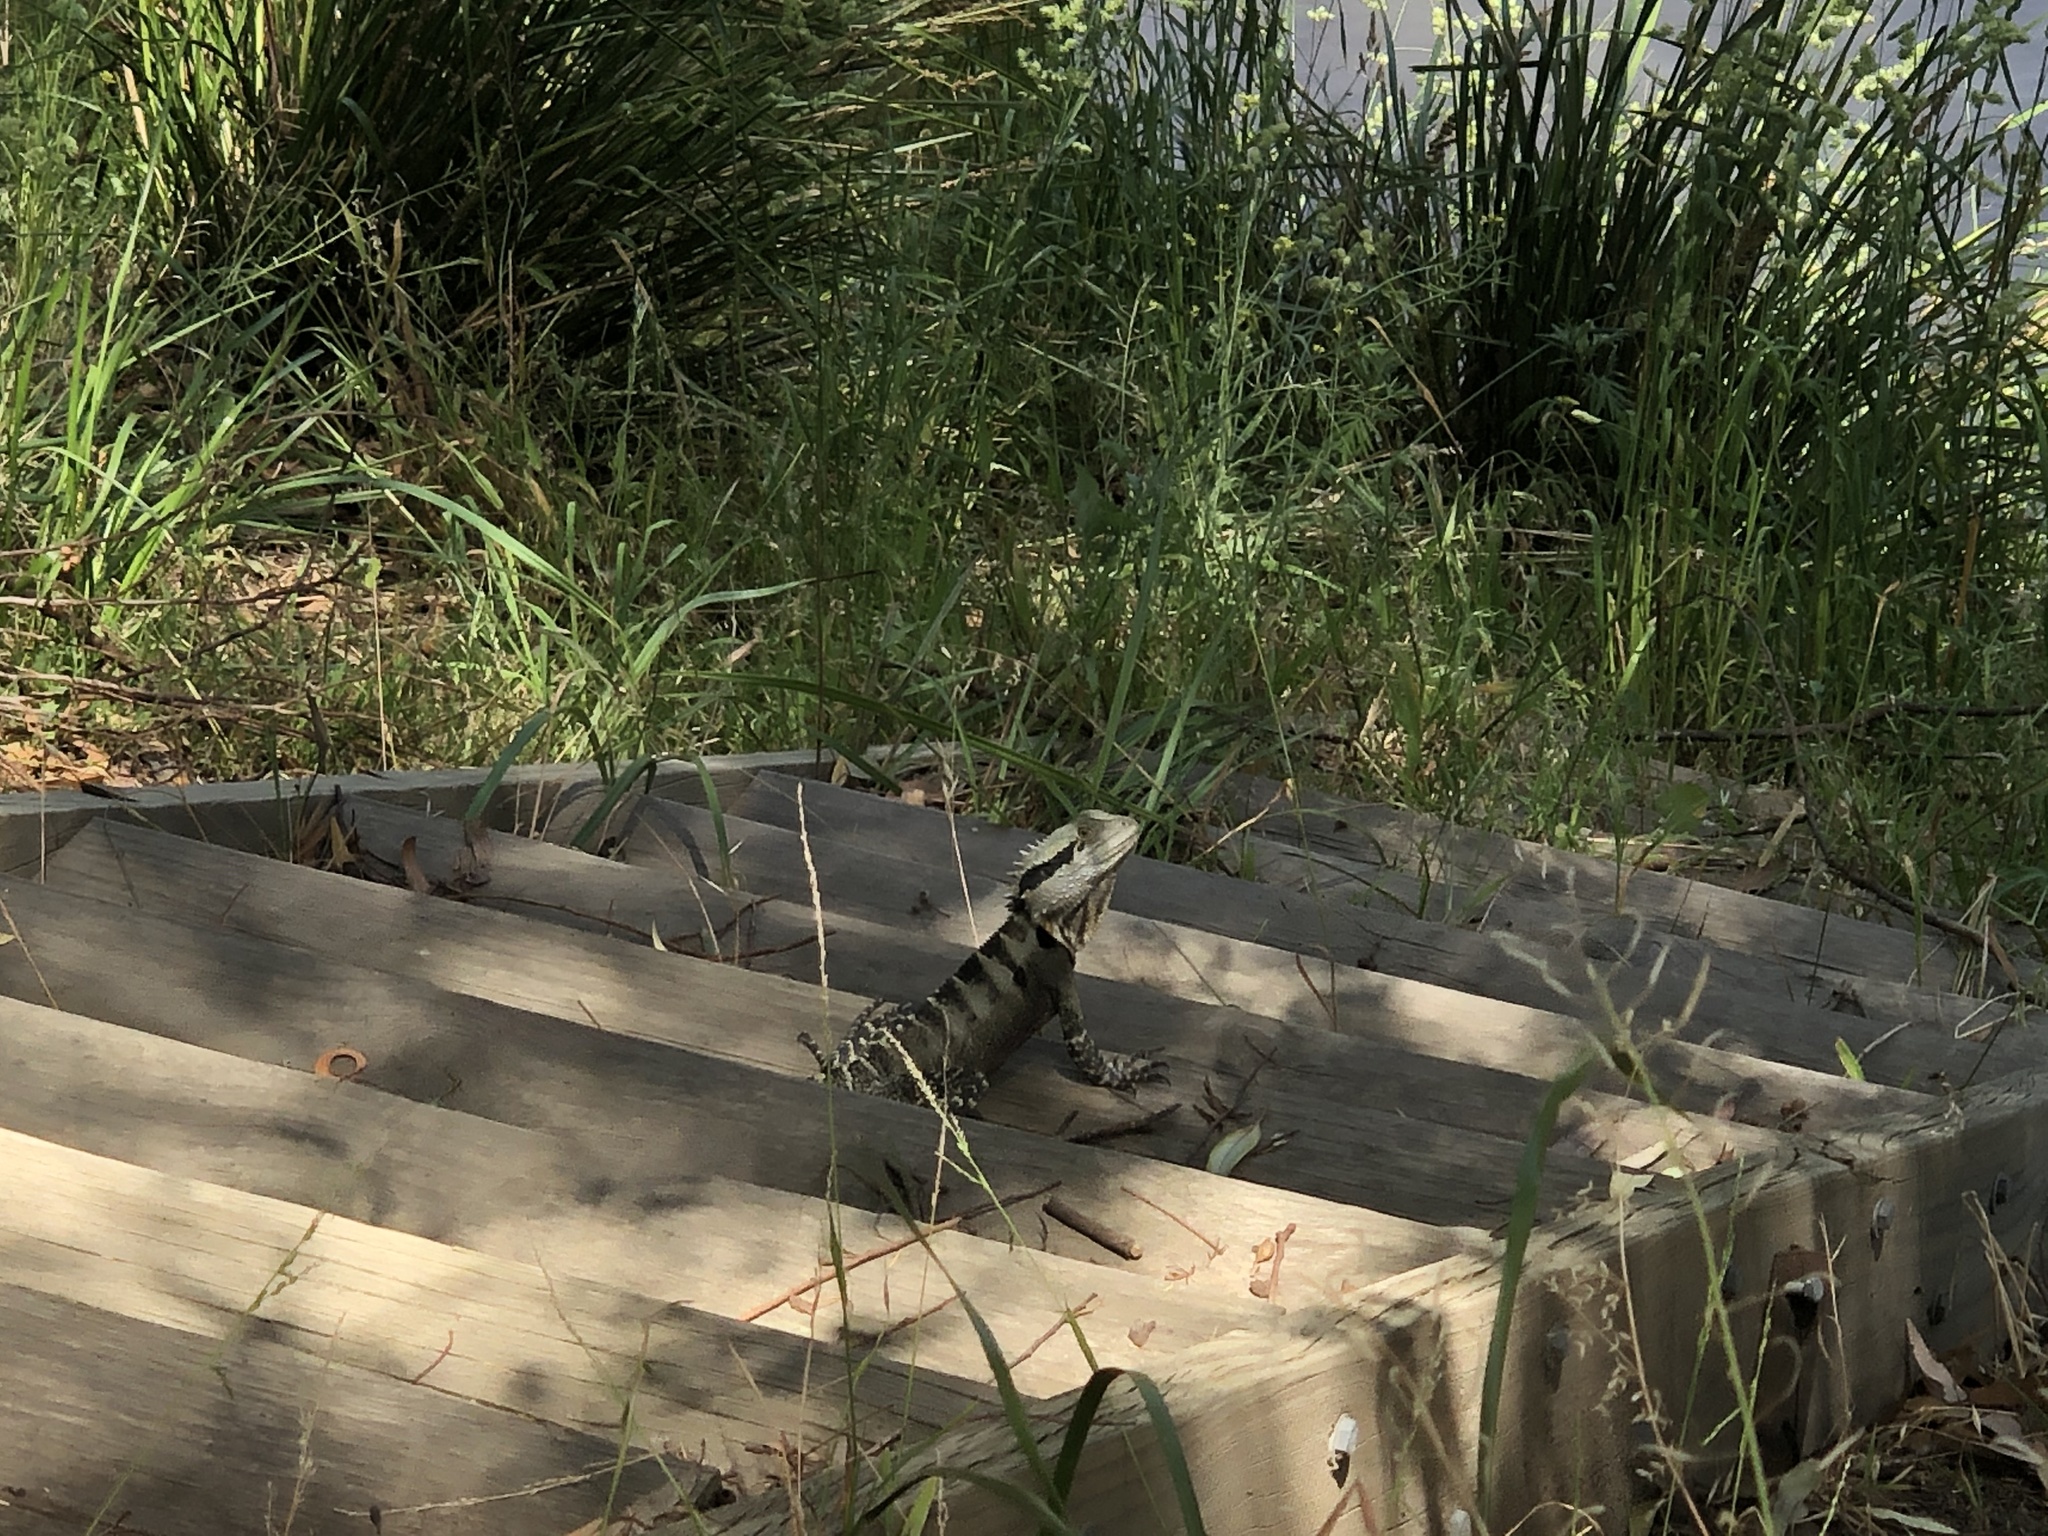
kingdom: Animalia
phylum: Chordata
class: Squamata
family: Agamidae
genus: Intellagama
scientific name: Intellagama lesueurii
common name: Eastern water dragon
